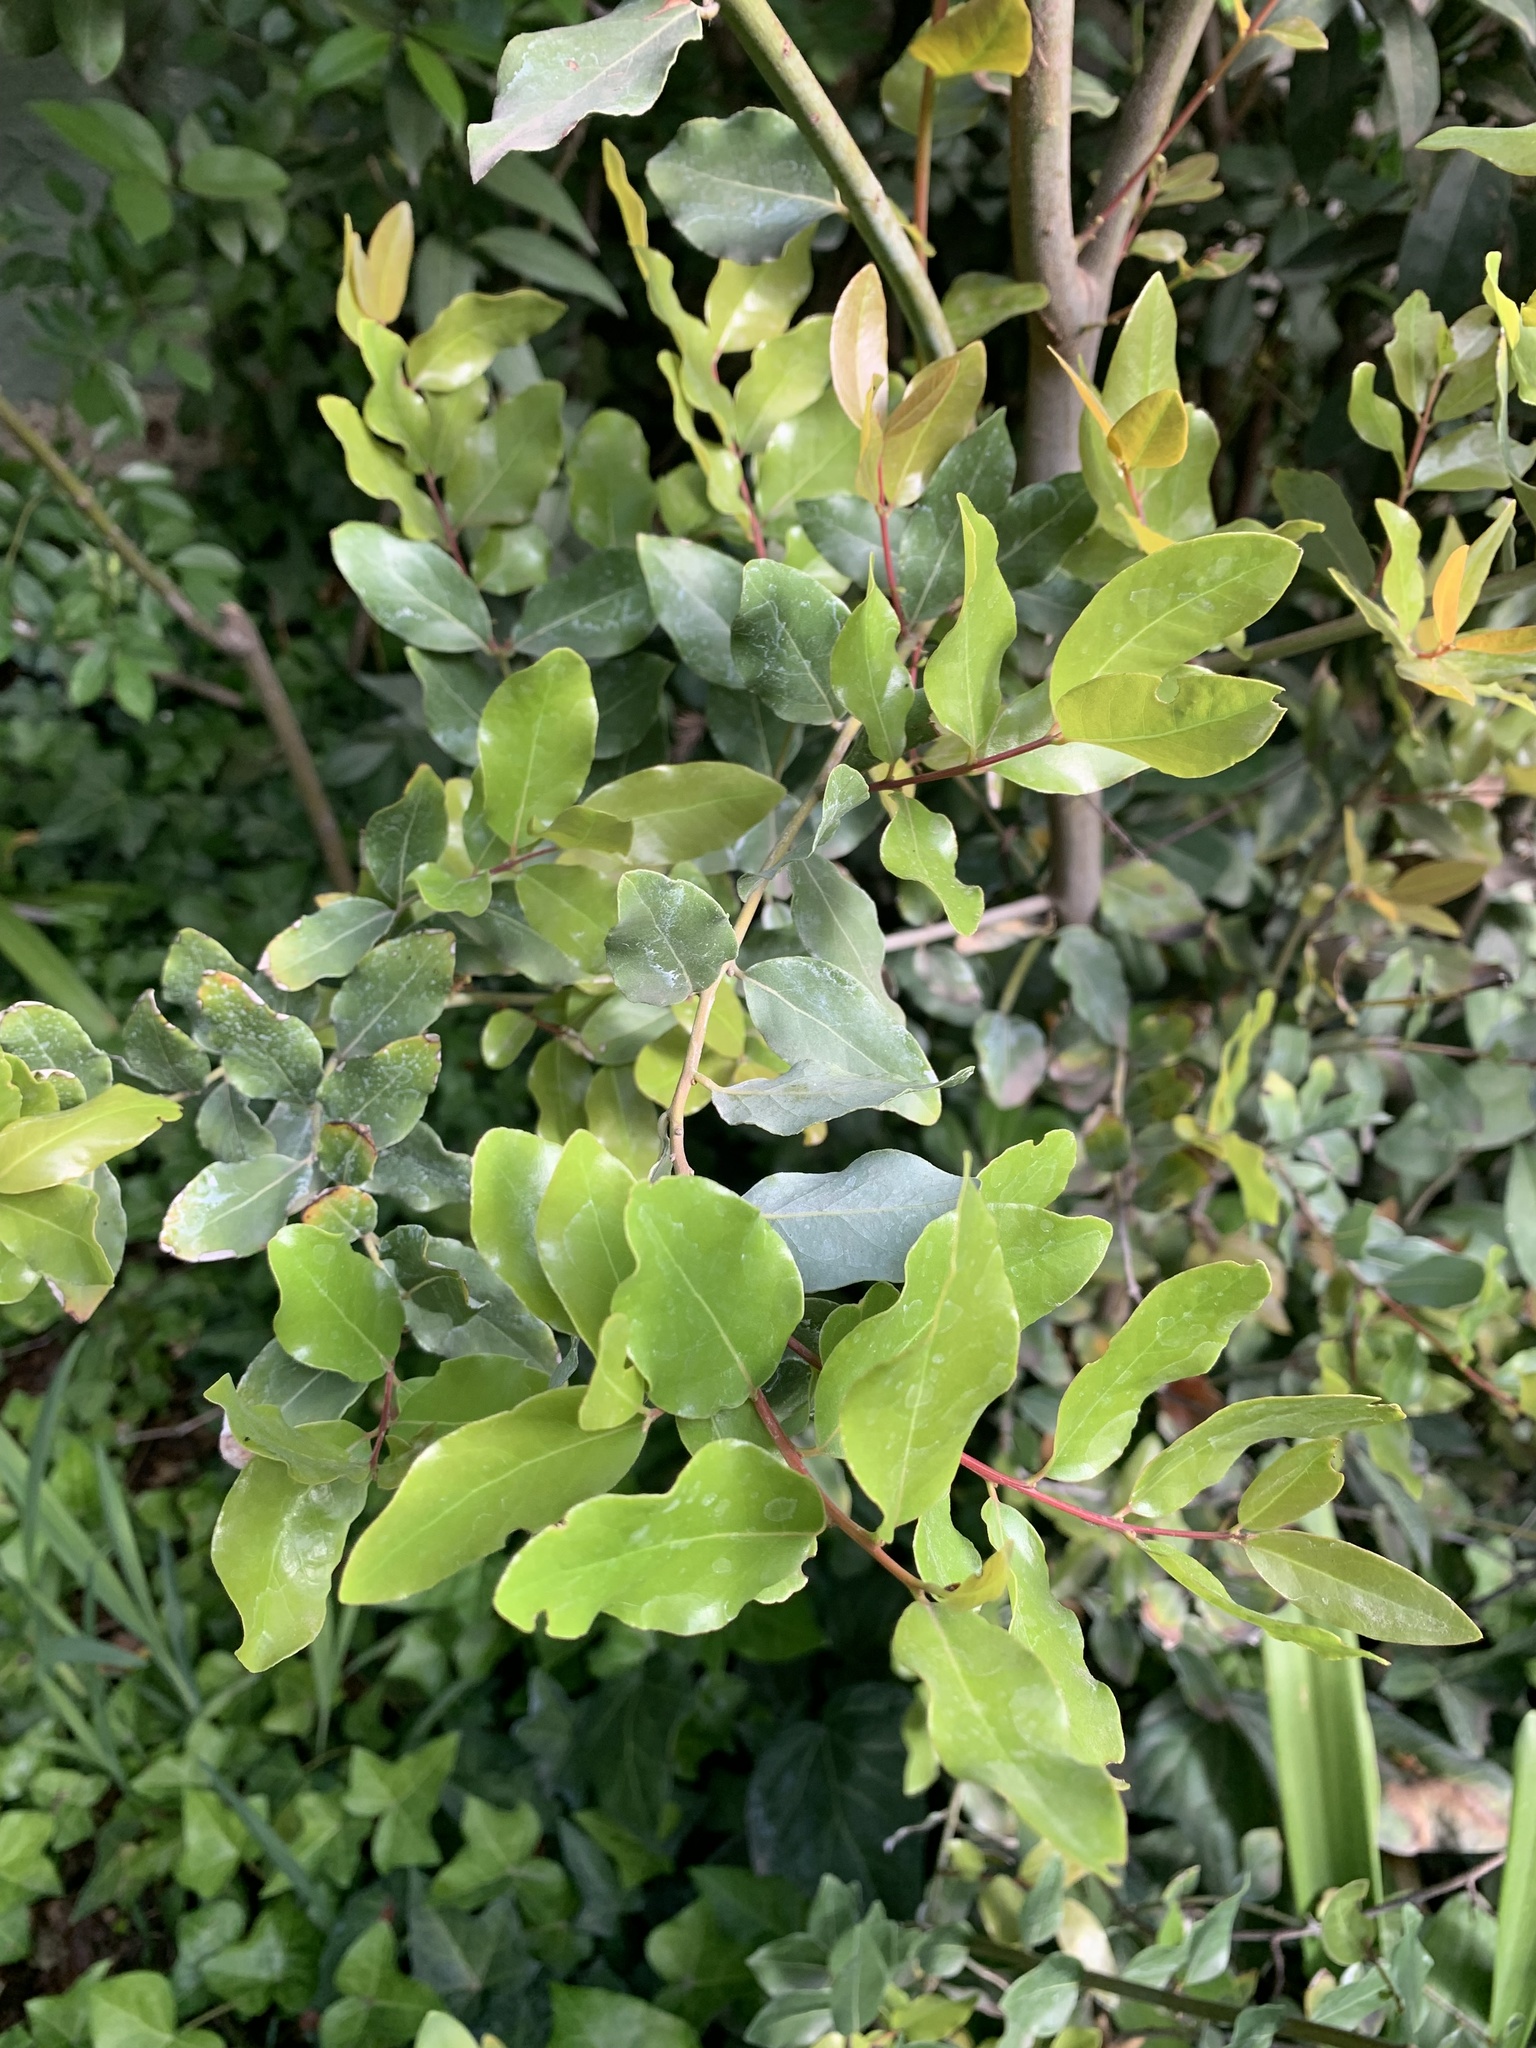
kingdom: Plantae
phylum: Tracheophyta
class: Magnoliopsida
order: Laurales
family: Lauraceae
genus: Cryptocarya
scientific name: Cryptocarya alba
